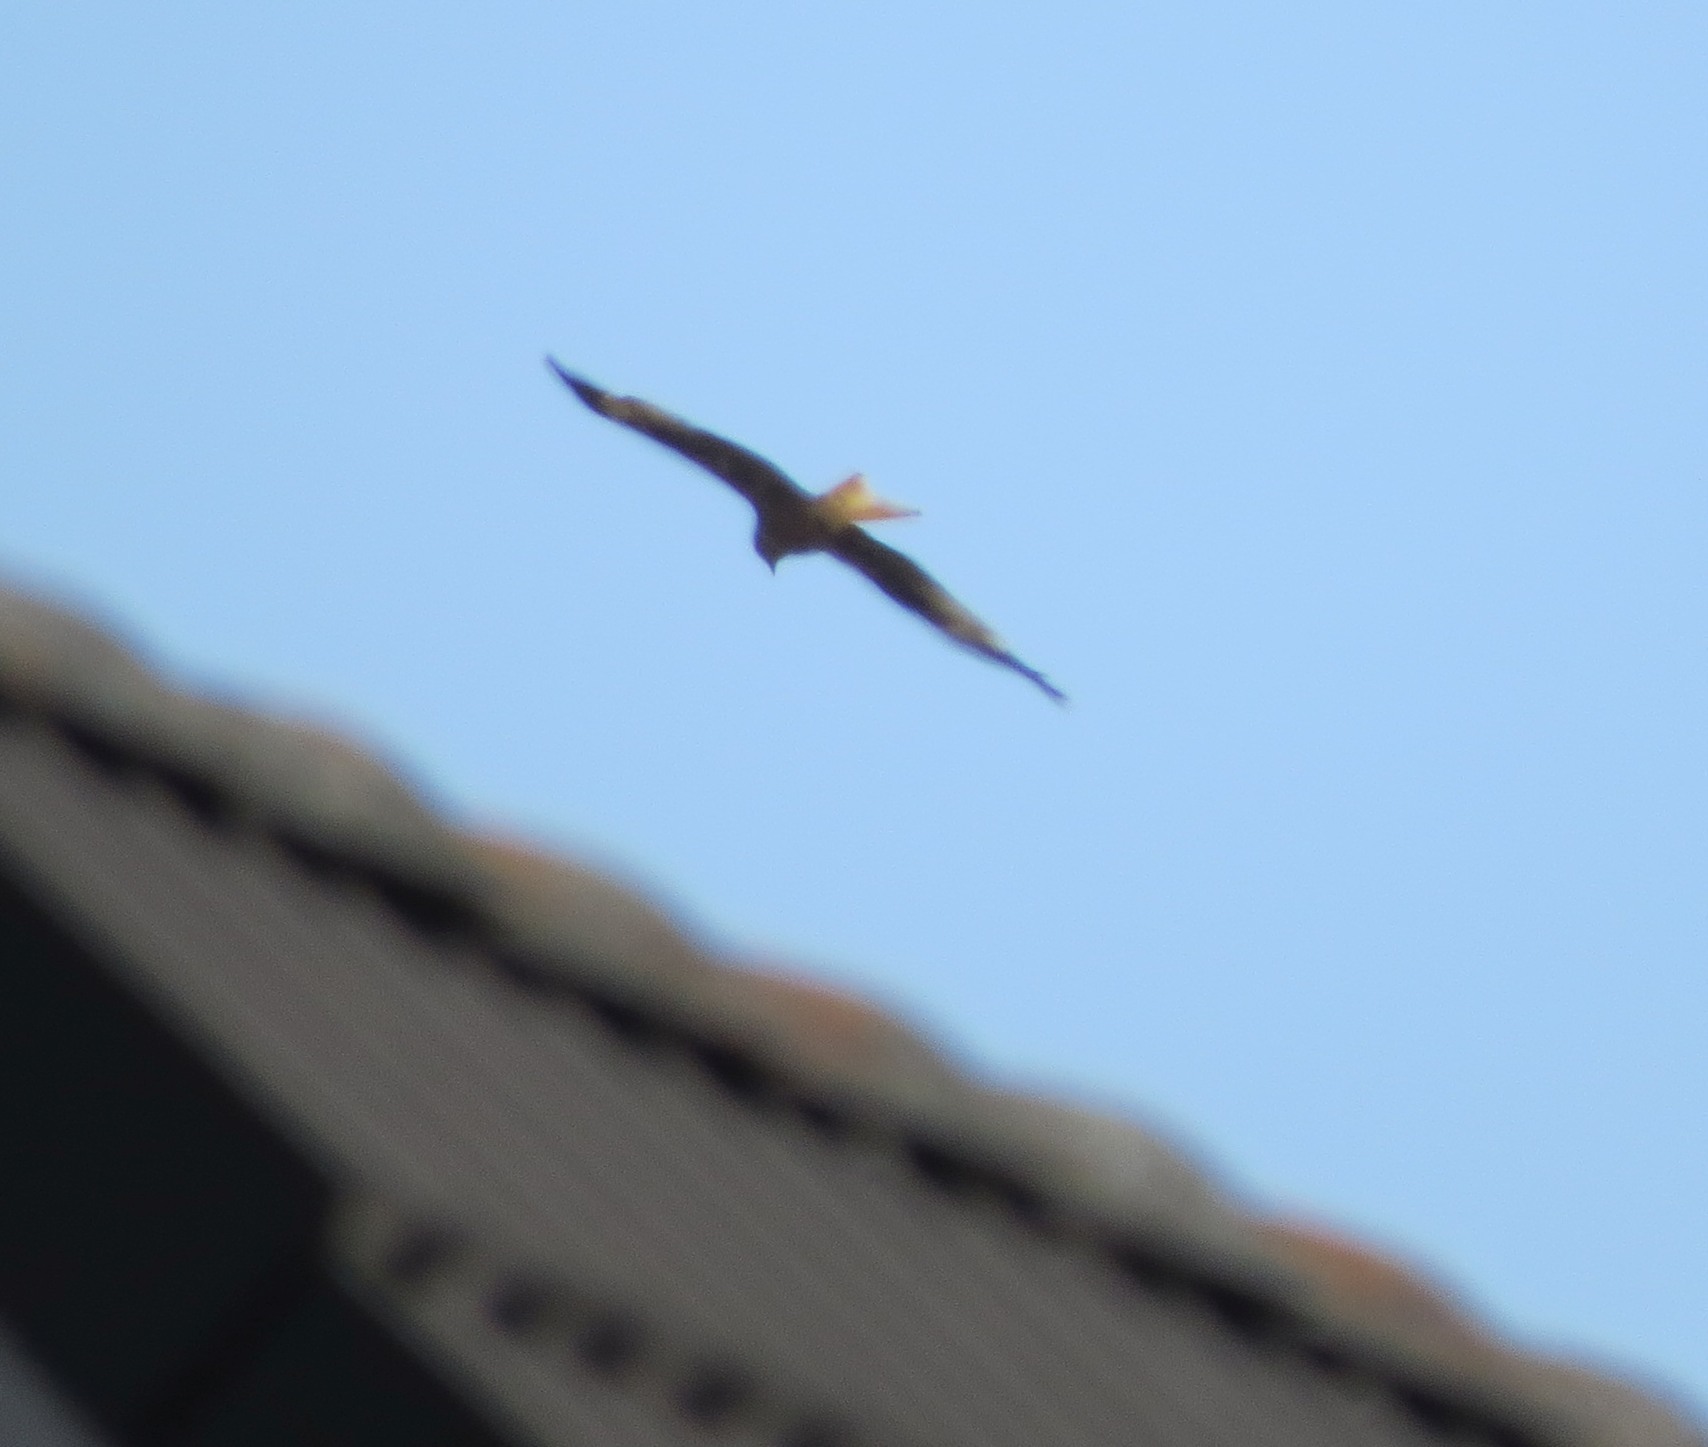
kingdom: Animalia
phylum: Chordata
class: Aves
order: Accipitriformes
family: Accipitridae
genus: Milvus
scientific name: Milvus milvus
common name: Red kite
